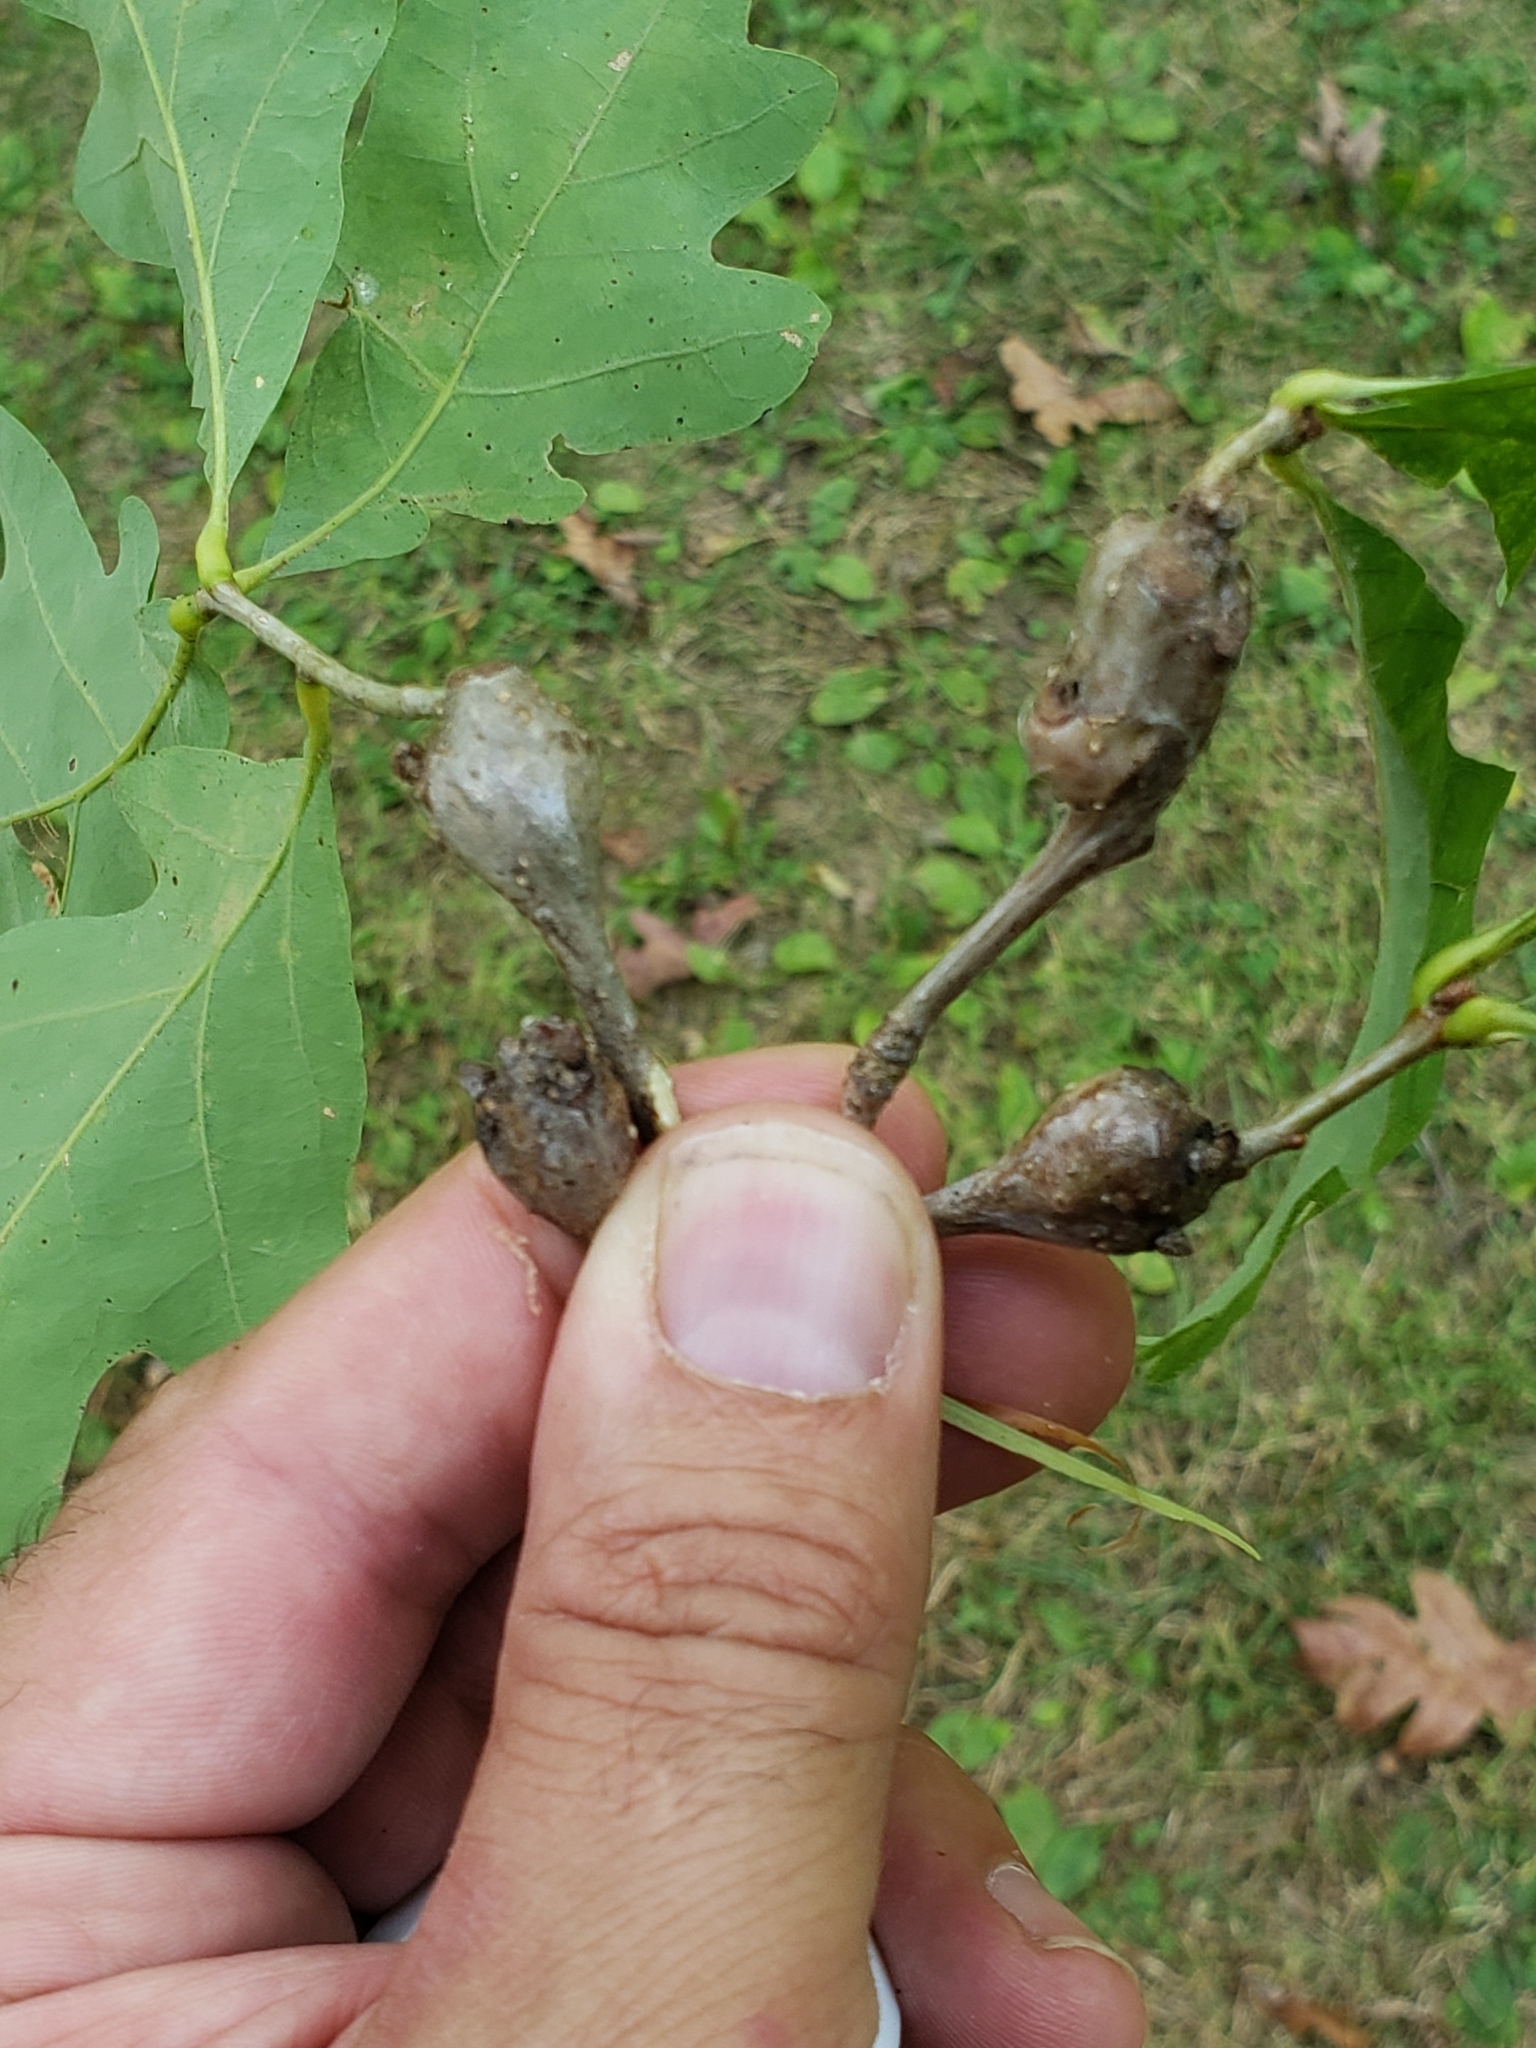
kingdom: Animalia
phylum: Arthropoda
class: Insecta
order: Hymenoptera
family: Cynipidae
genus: Callirhytis
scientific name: Callirhytis clavula
